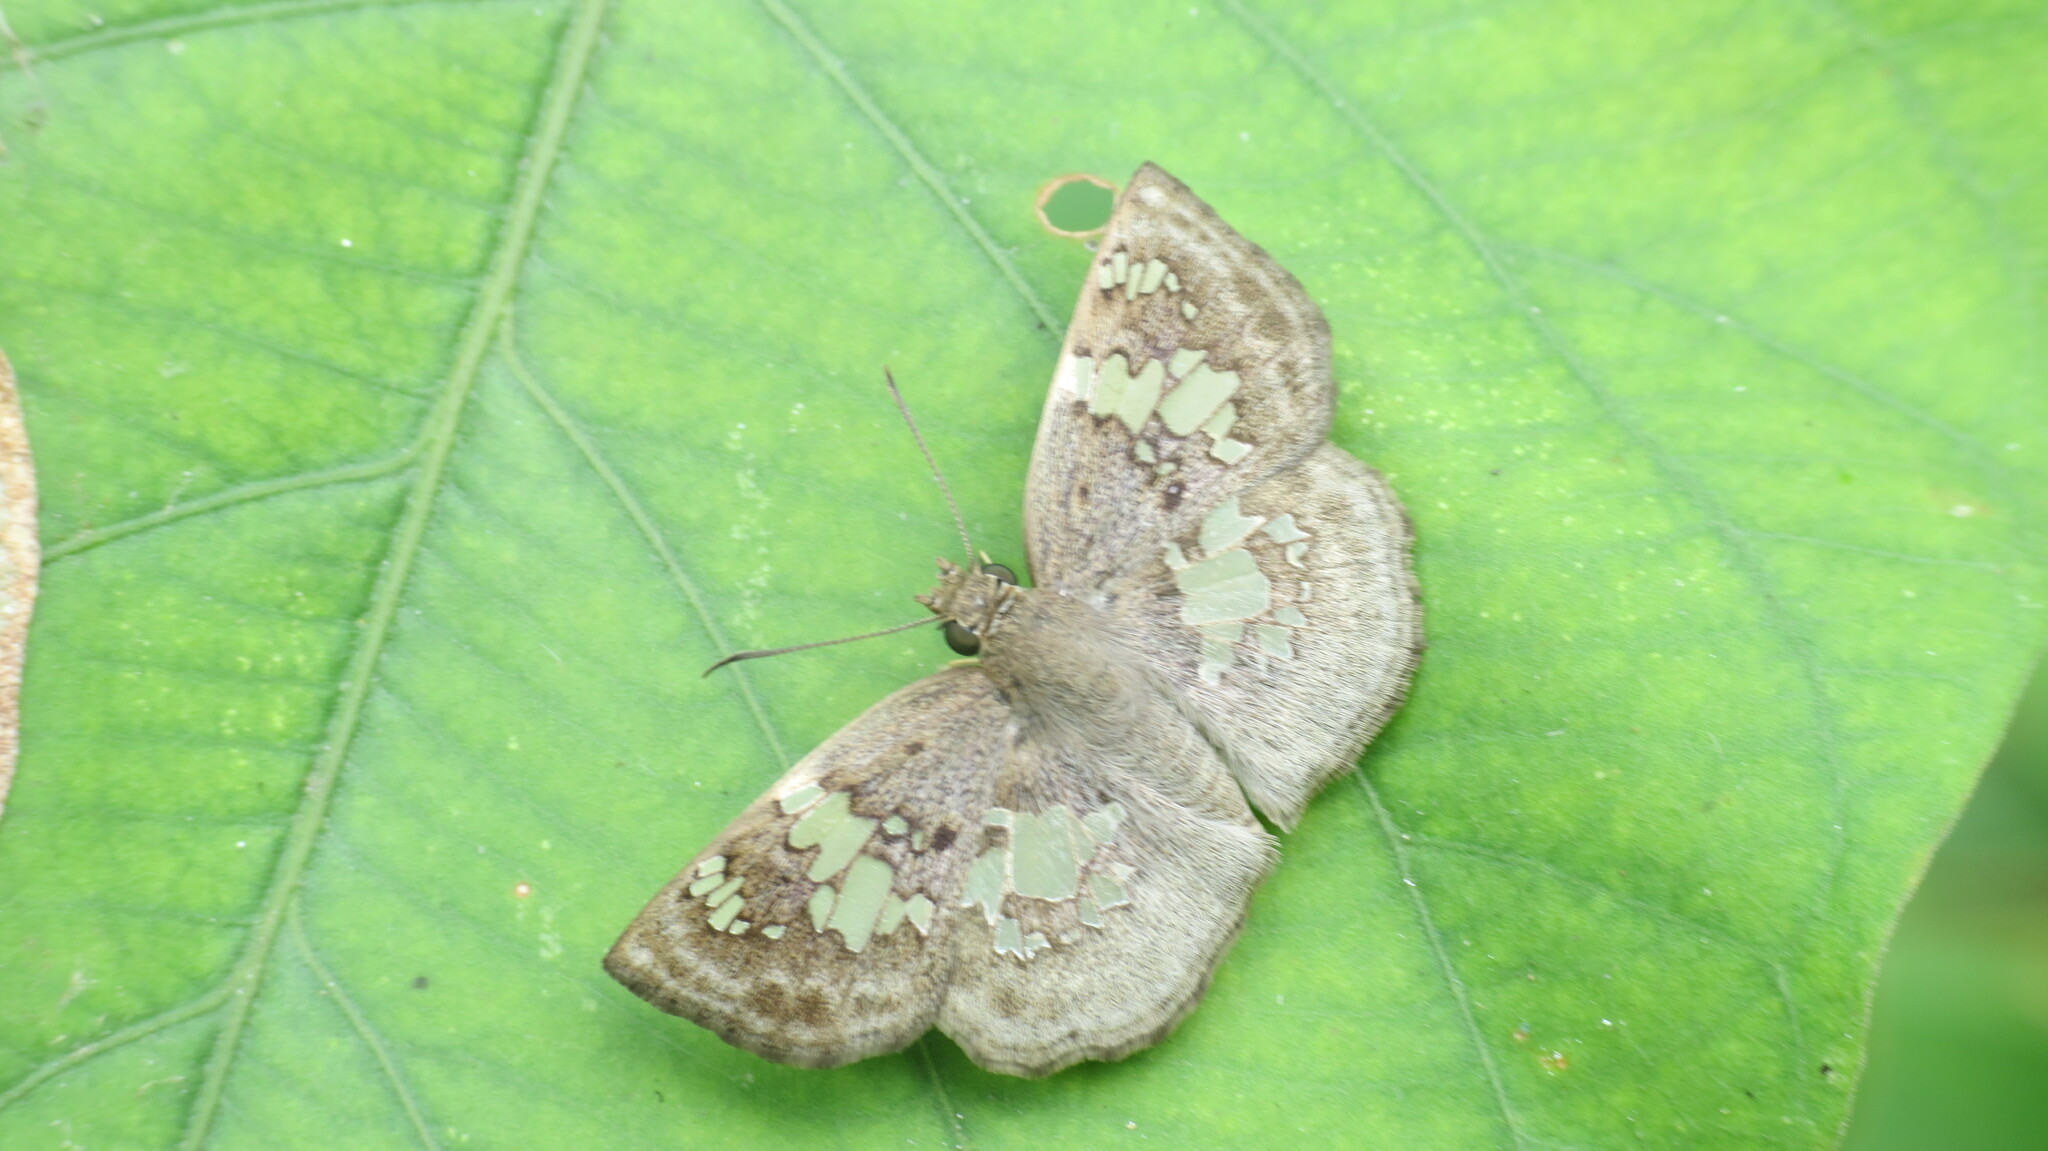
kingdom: Animalia
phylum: Arthropoda
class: Insecta
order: Lepidoptera
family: Hesperiidae
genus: Xenophanes
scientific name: Xenophanes tryxus
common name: Glassy-winged skipper
